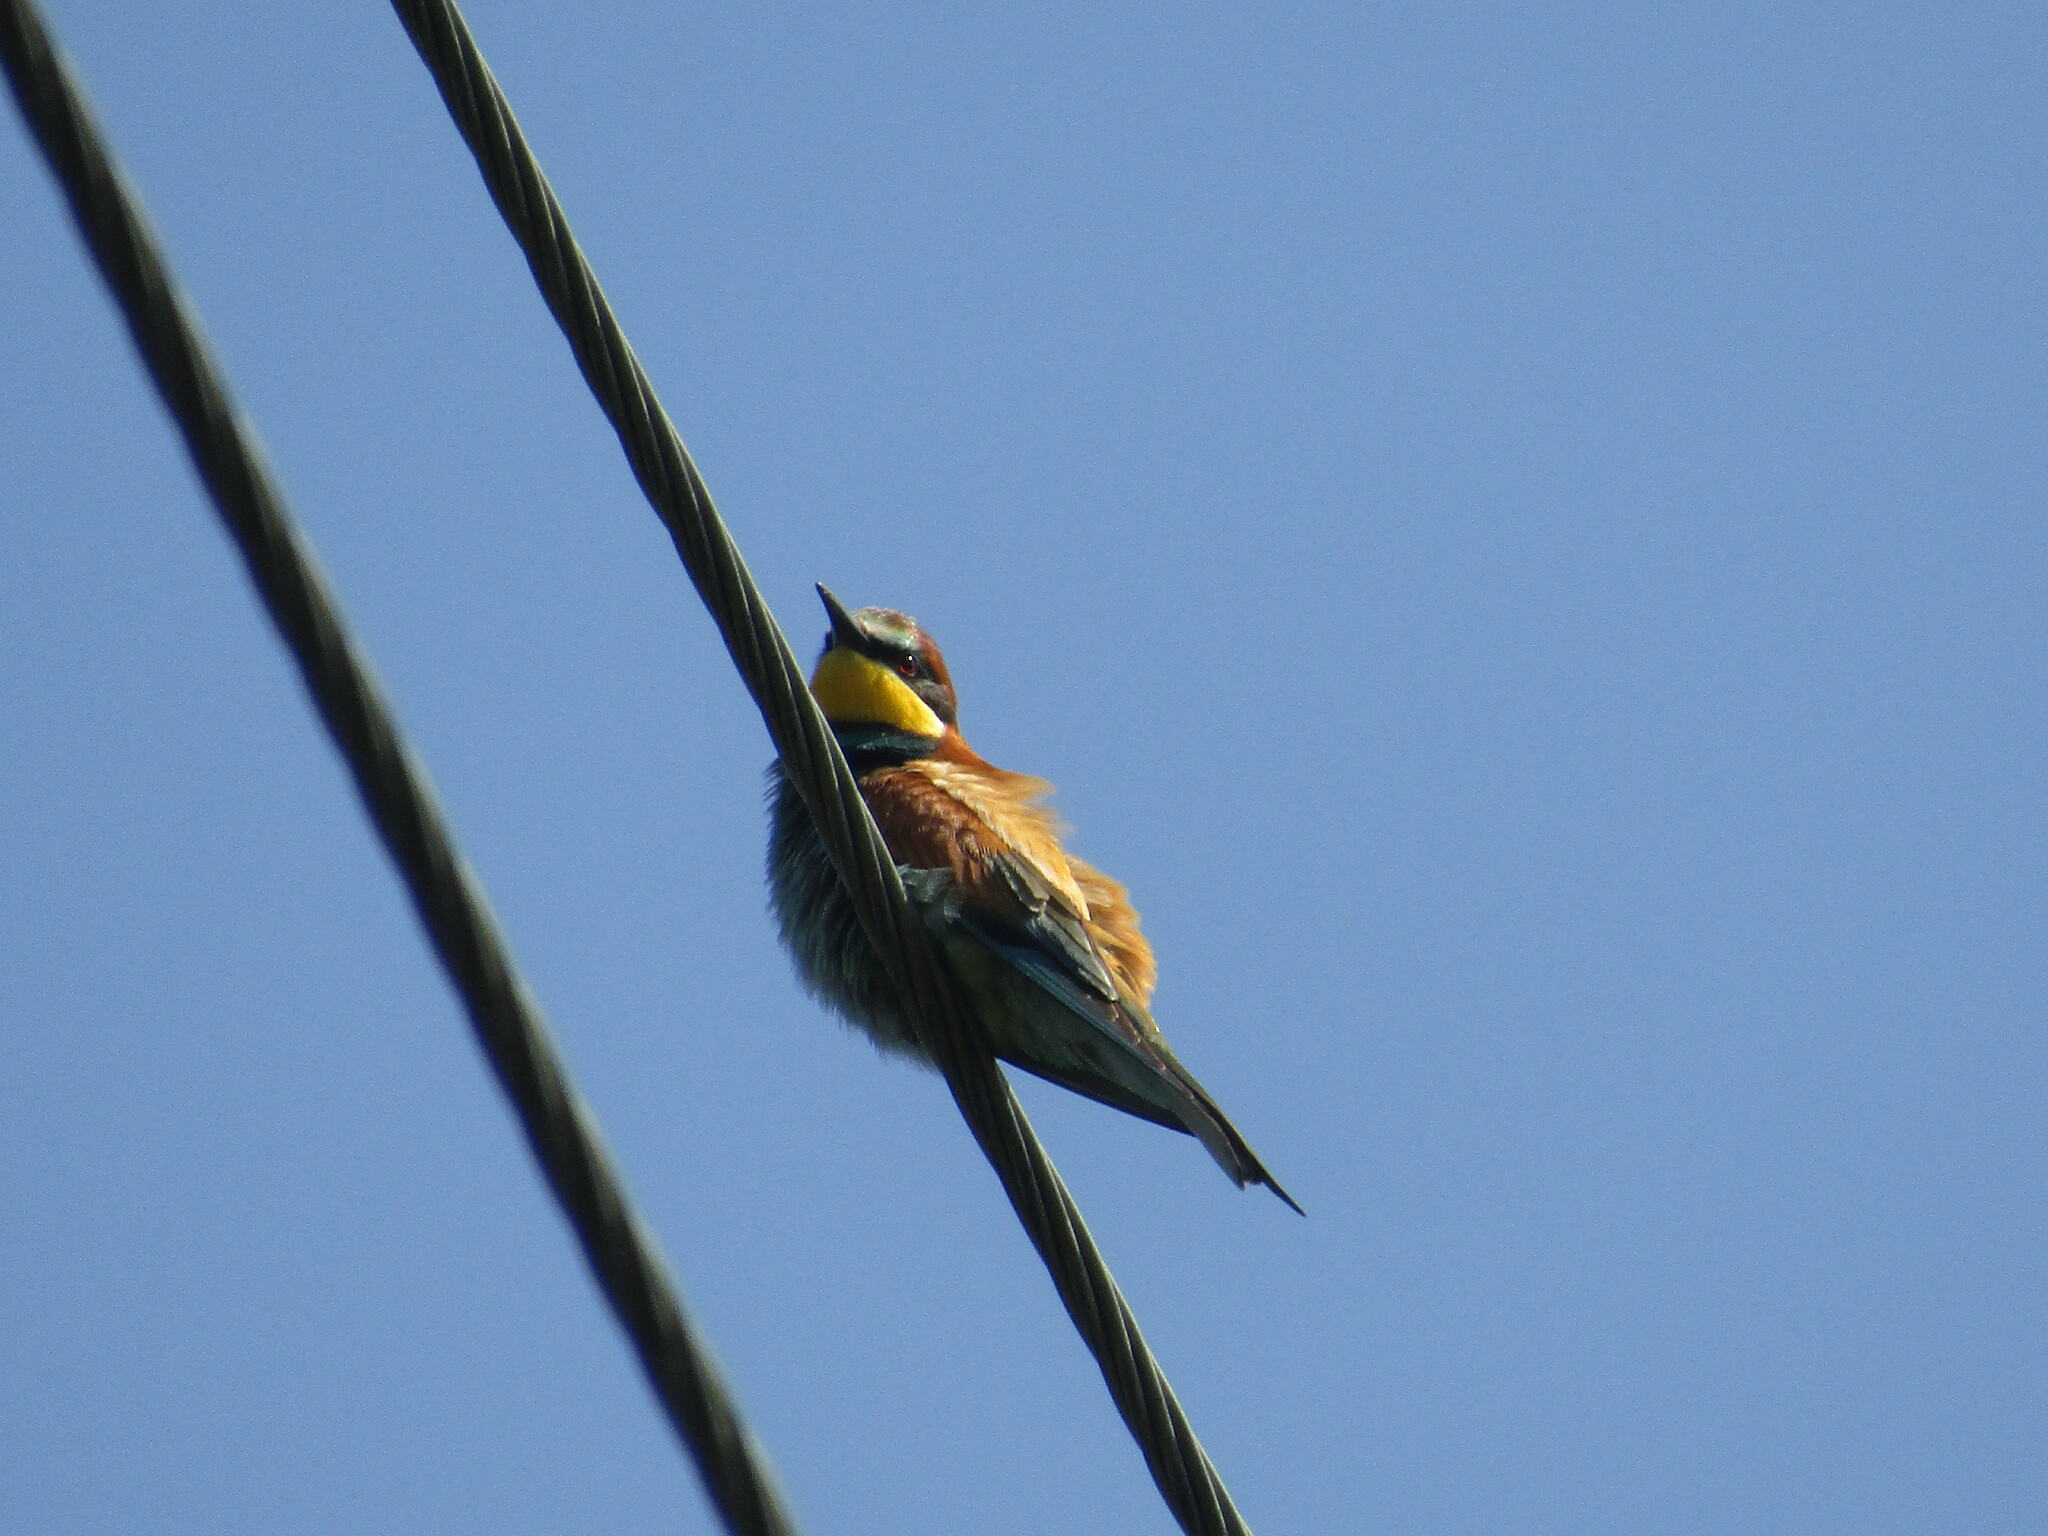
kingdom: Animalia
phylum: Chordata
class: Aves
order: Coraciiformes
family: Meropidae
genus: Merops
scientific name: Merops apiaster
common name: European bee-eater
